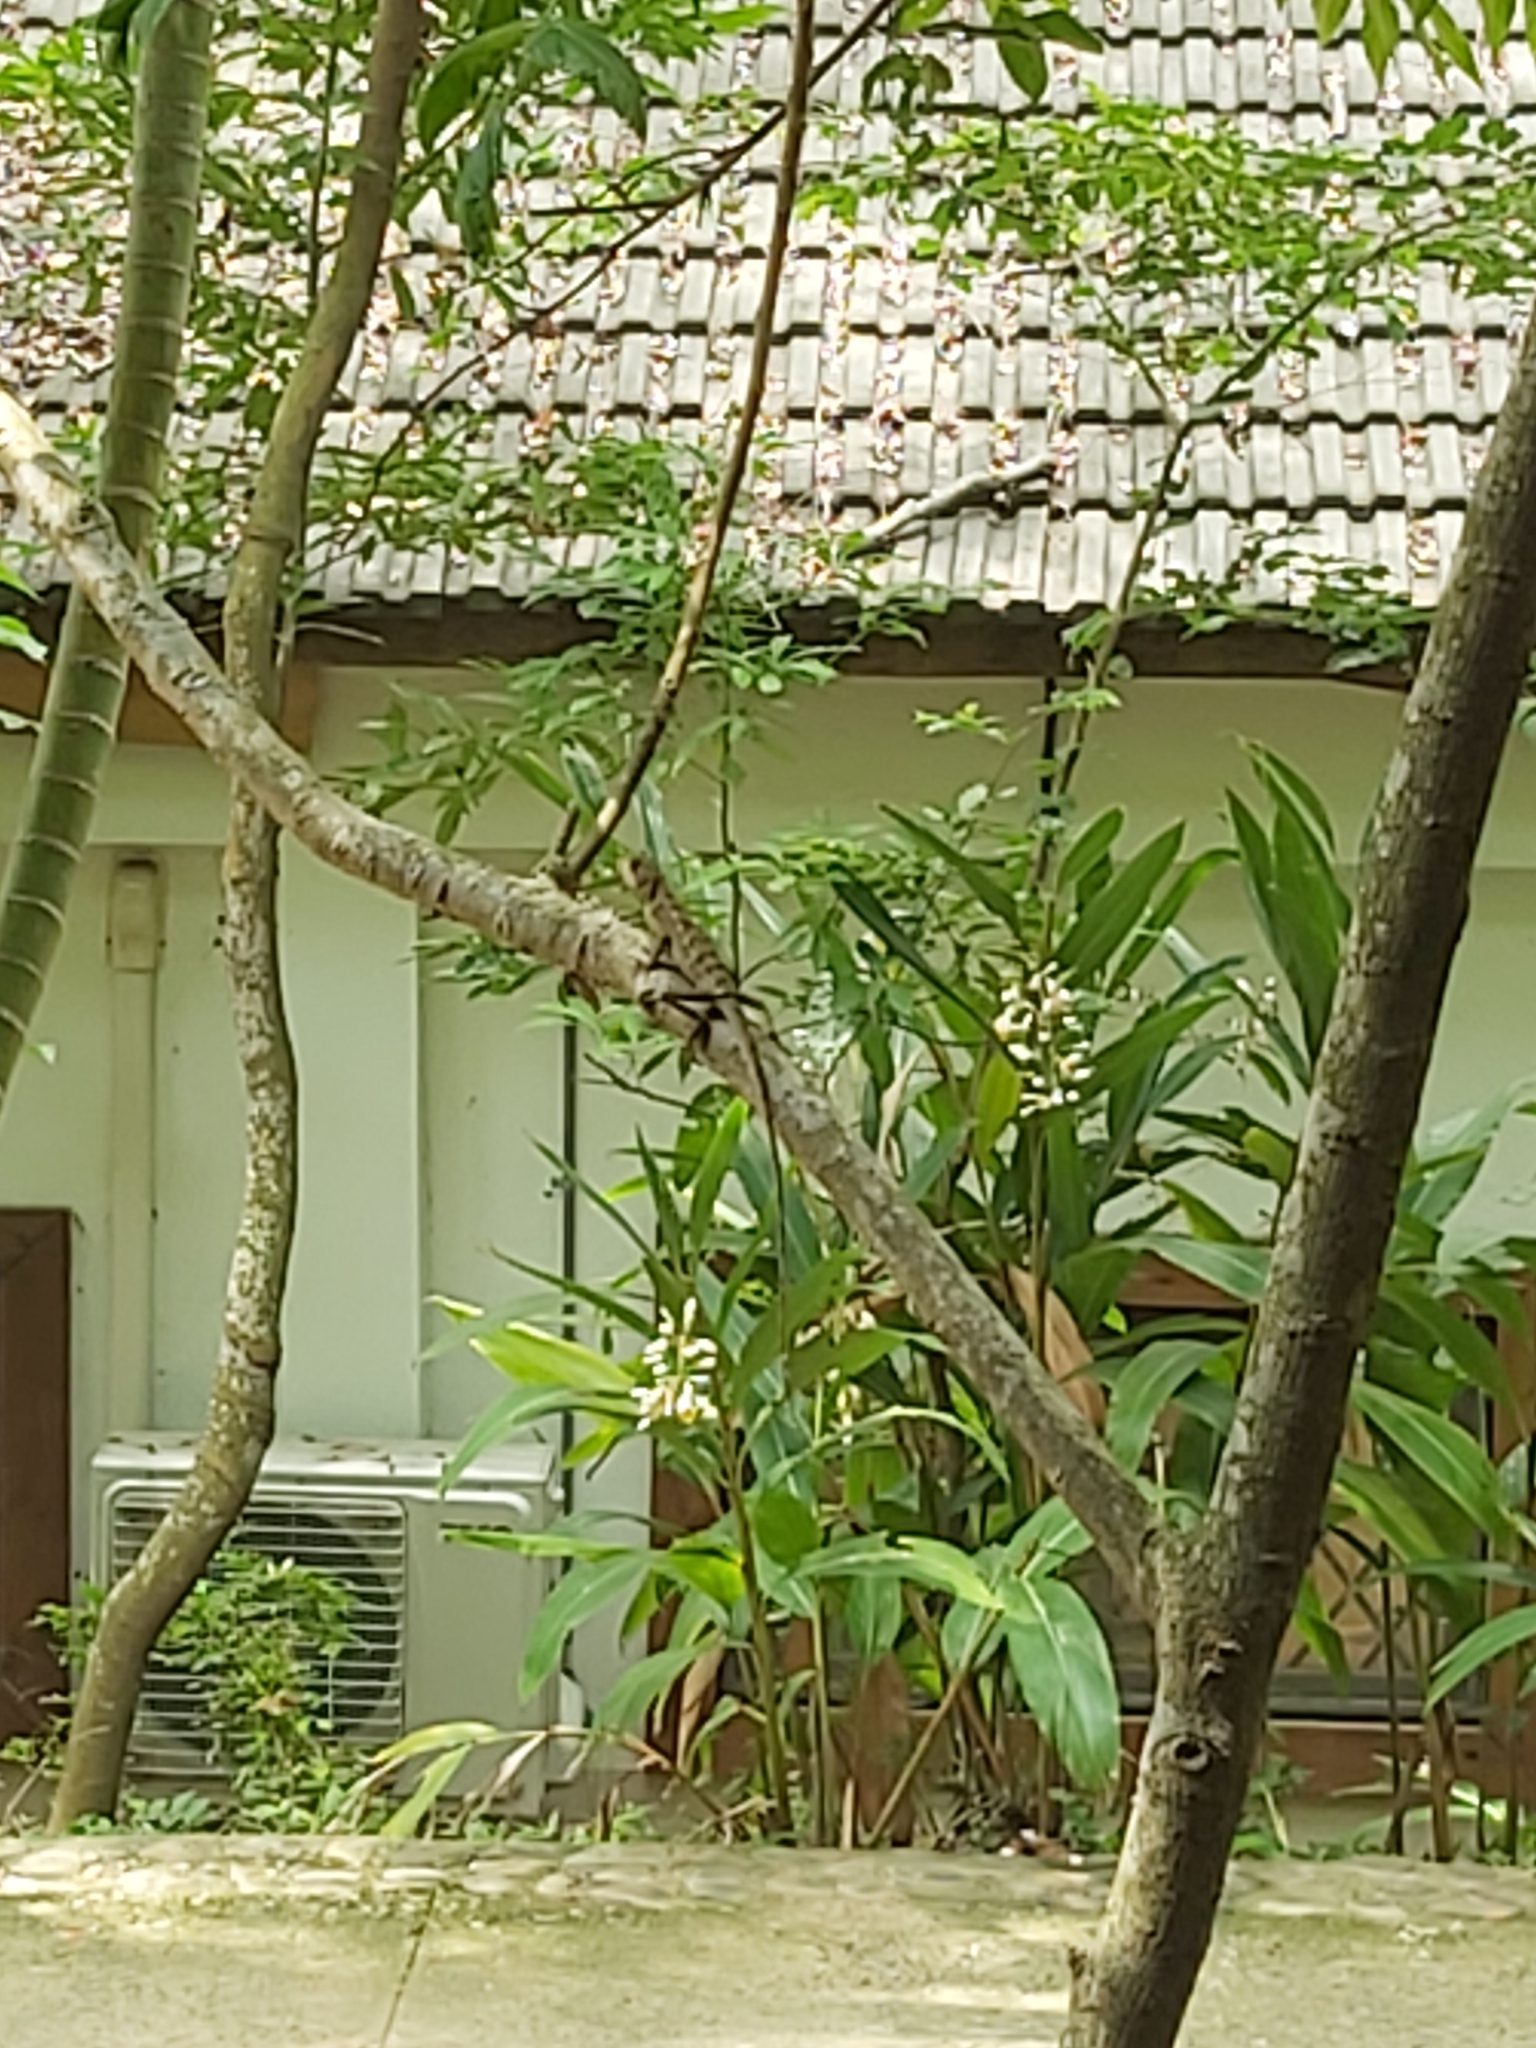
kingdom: Animalia
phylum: Chordata
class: Squamata
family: Agamidae
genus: Diploderma
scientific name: Diploderma swinhonis
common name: Taiwan japalure
